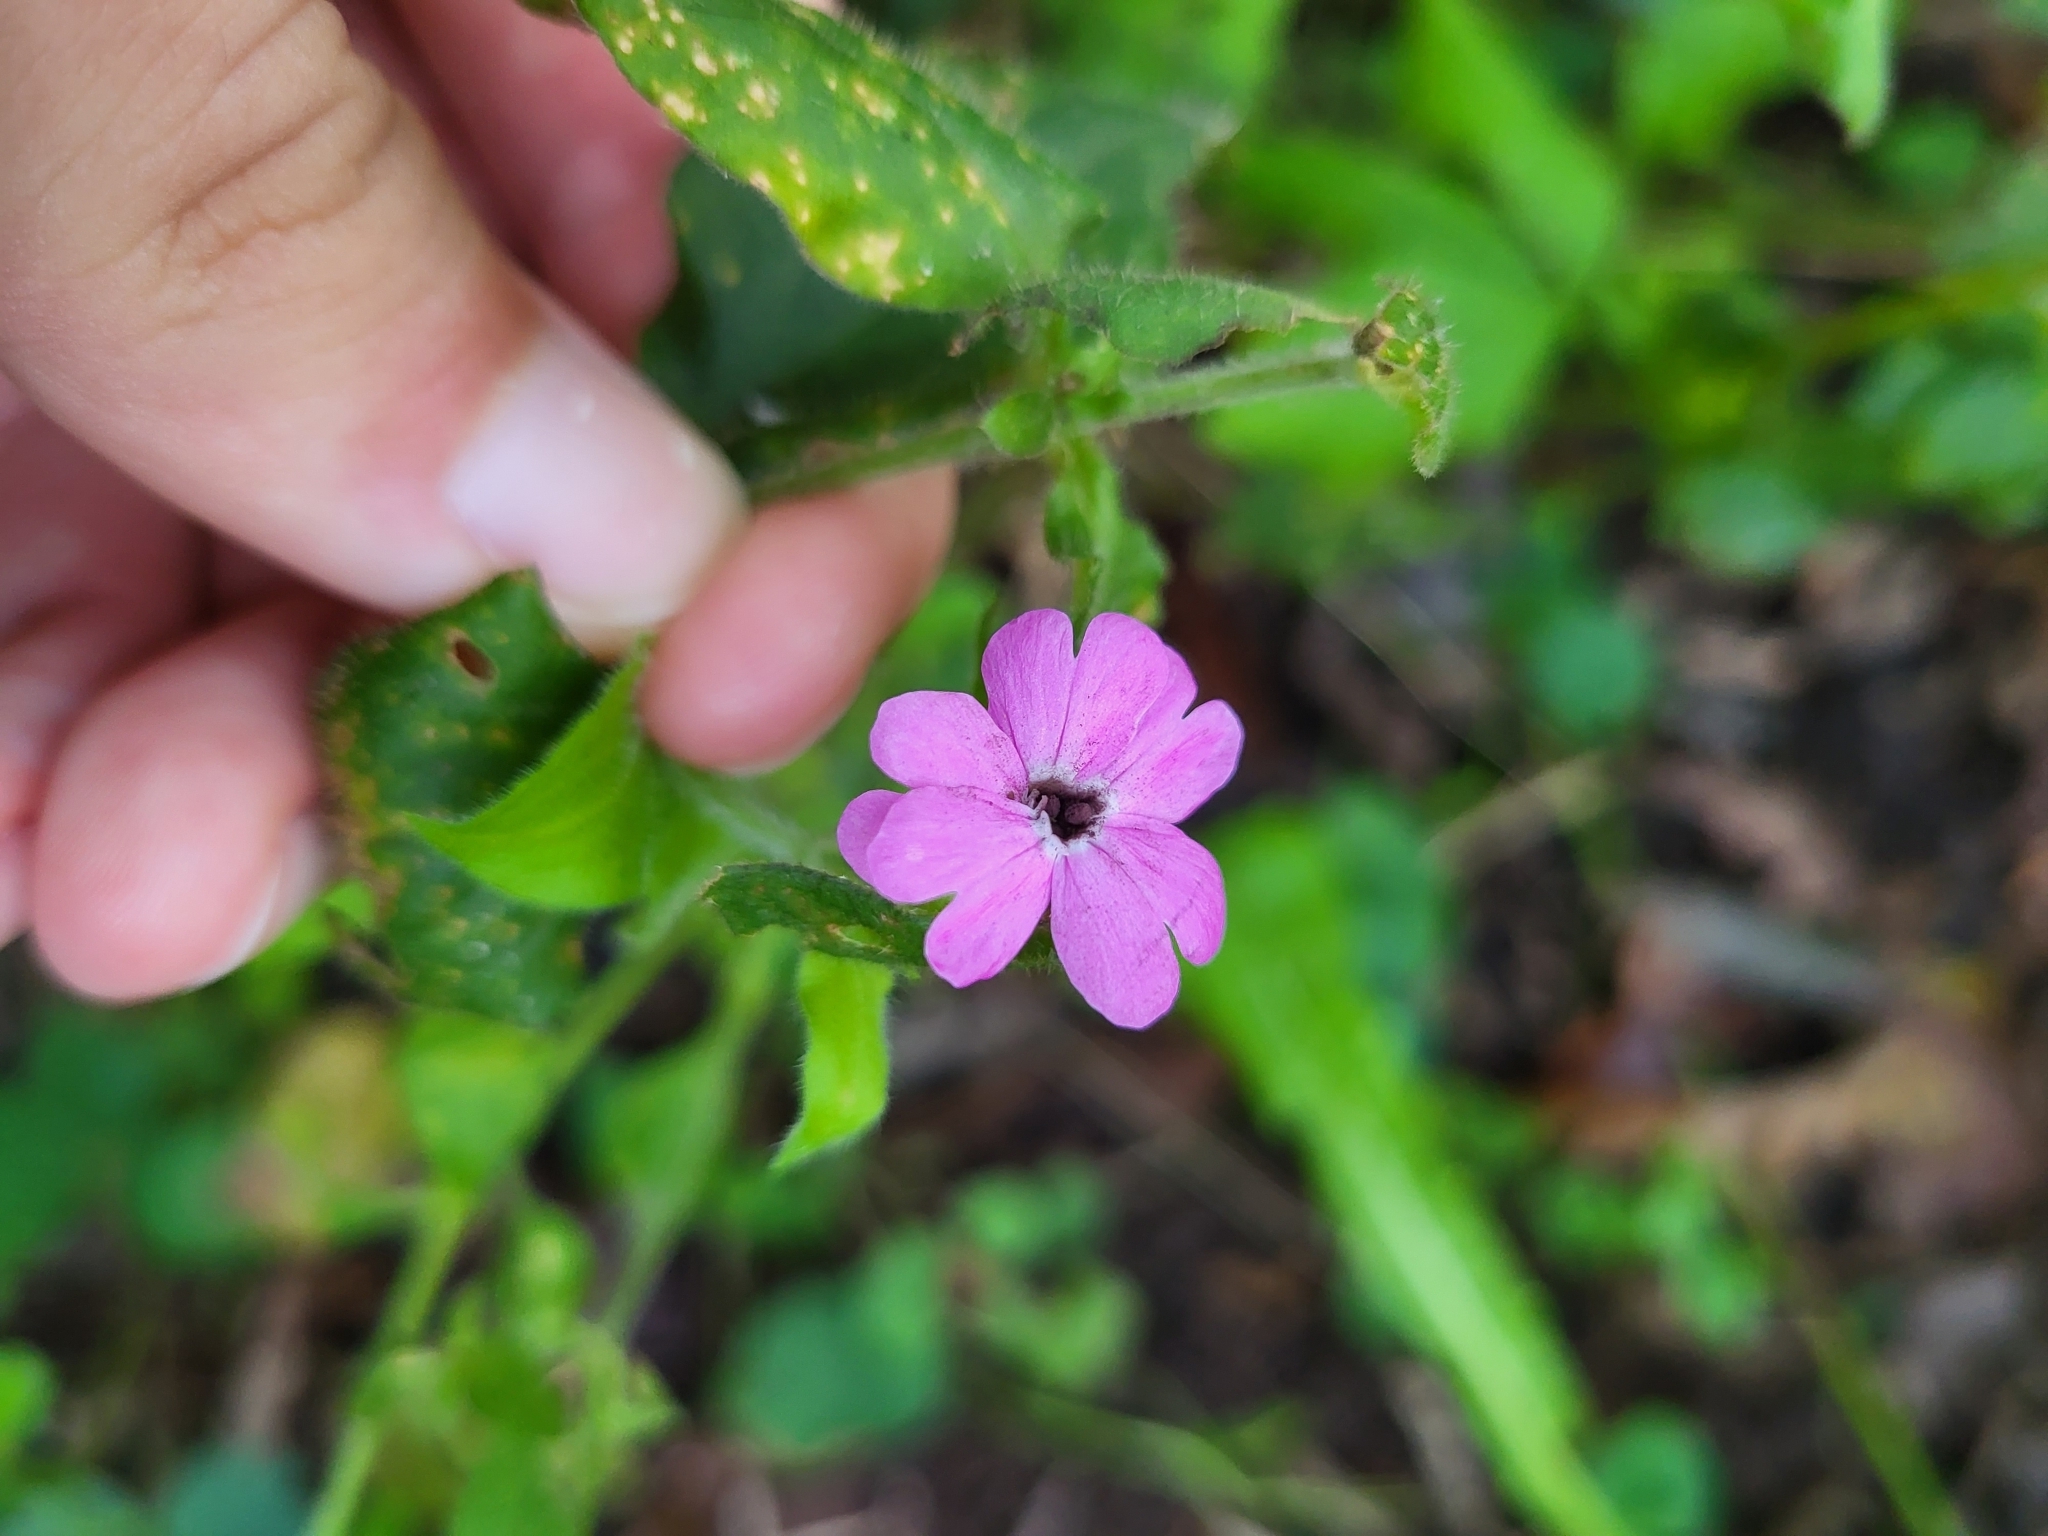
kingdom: Fungi
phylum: Basidiomycota
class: Microbotryomycetes
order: Microbotryales
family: Microbotryaceae
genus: Microbotryum
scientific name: Microbotryum silenes-dioicae
